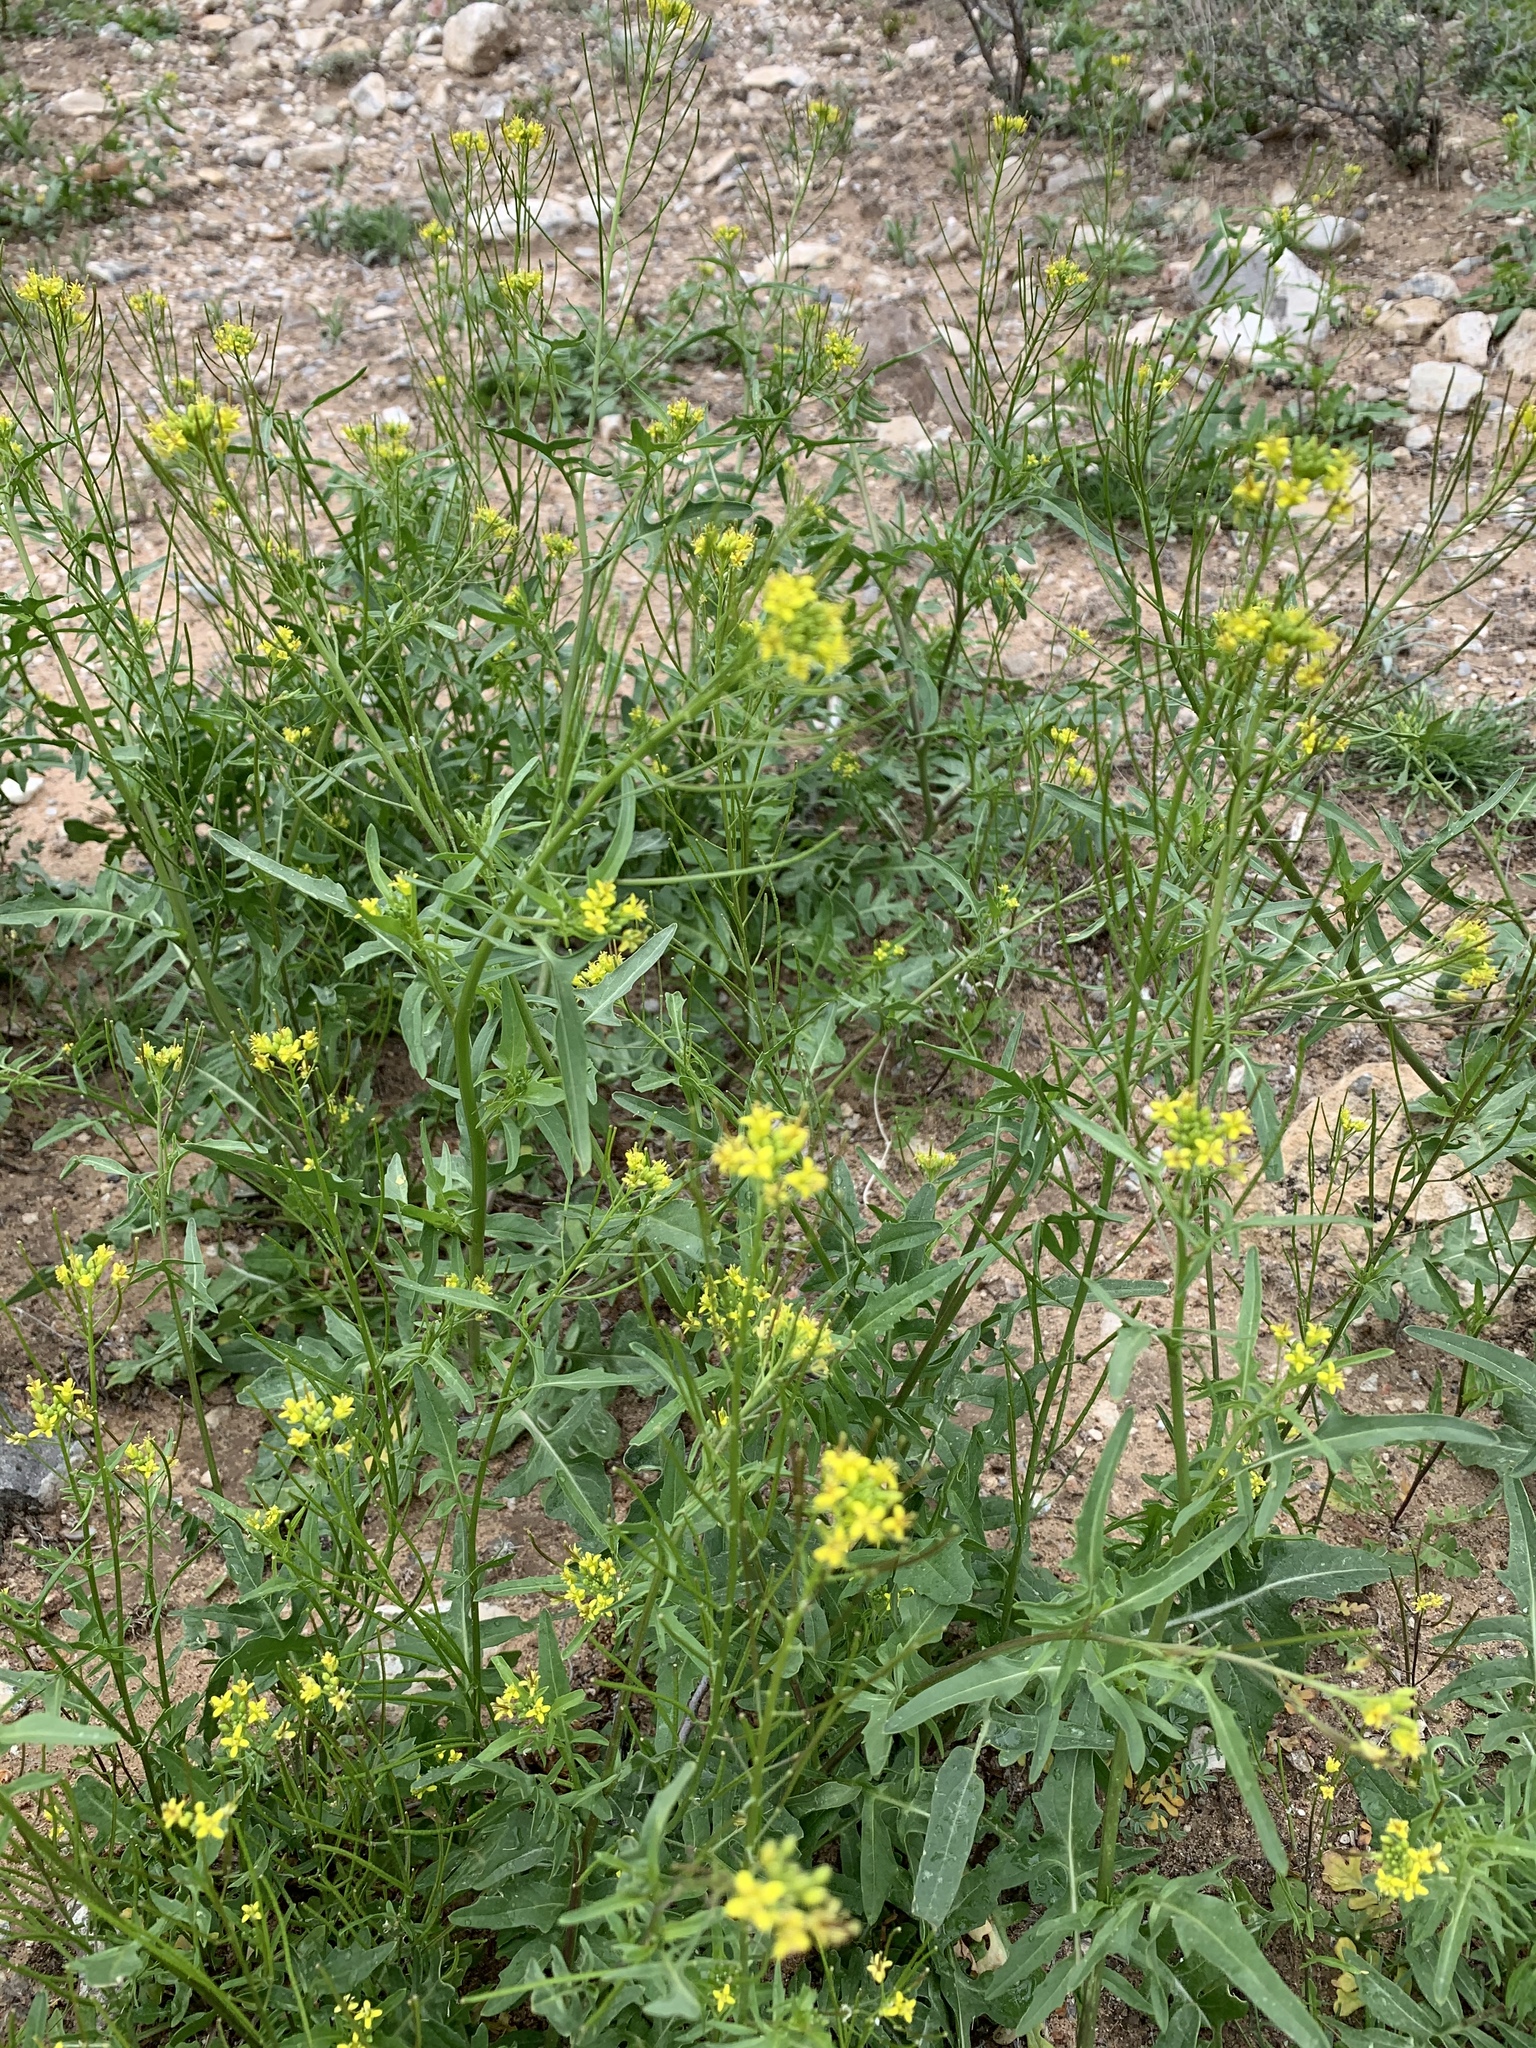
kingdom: Plantae
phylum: Tracheophyta
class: Magnoliopsida
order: Brassicales
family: Brassicaceae
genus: Sisymbrium
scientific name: Sisymbrium irio
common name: London rocket
